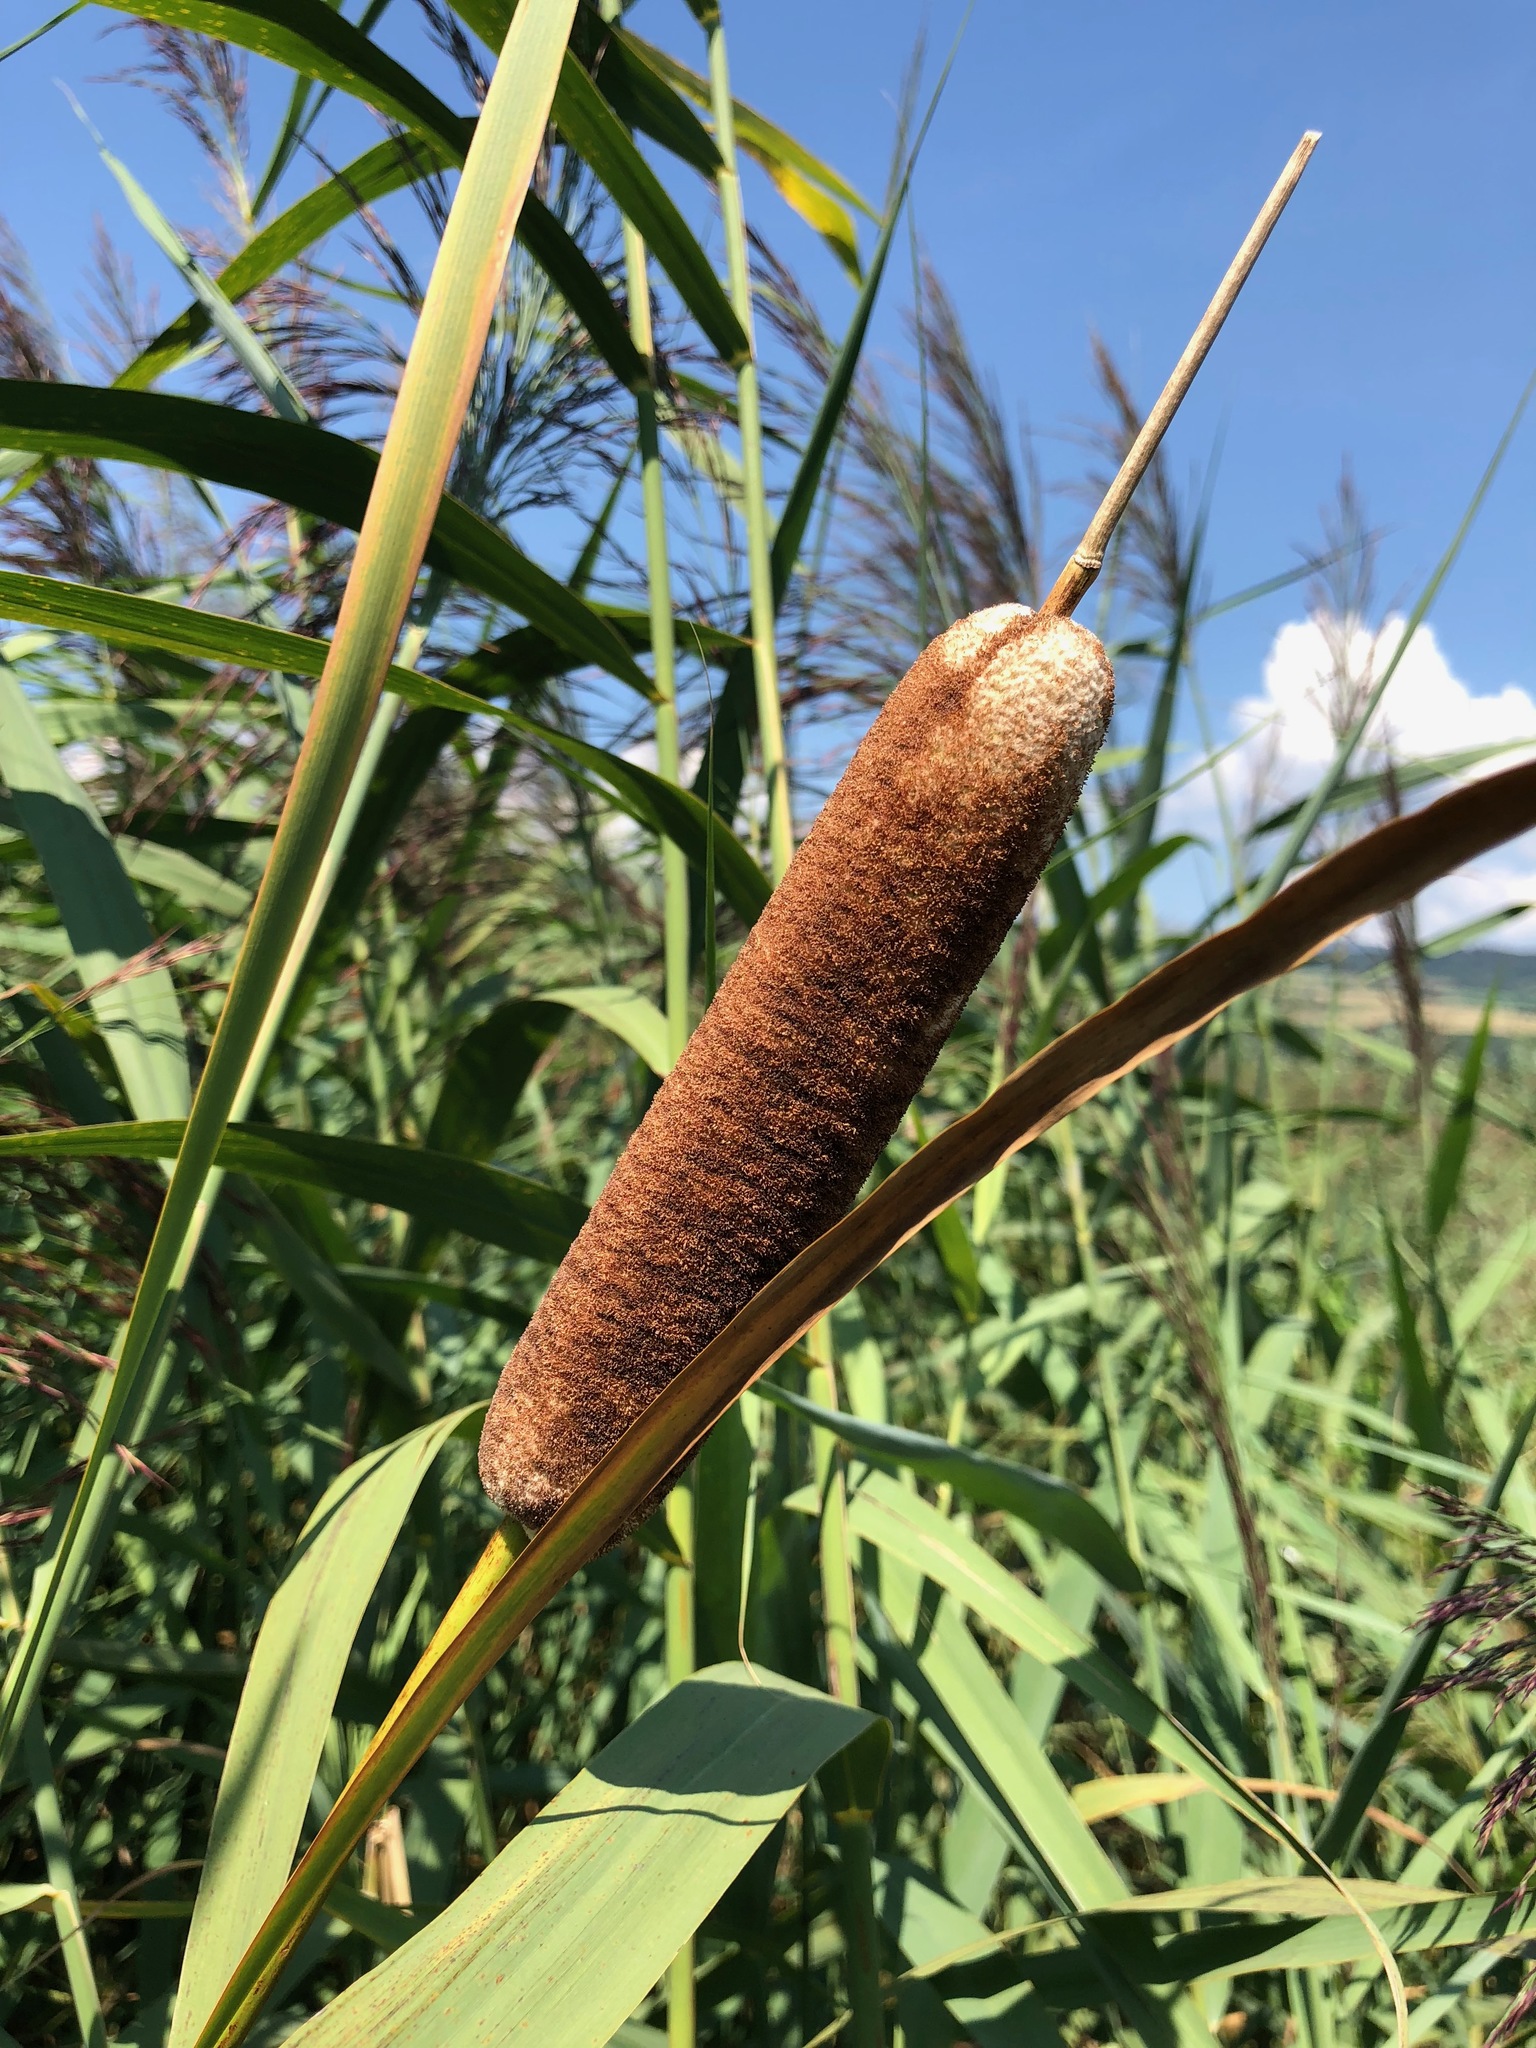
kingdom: Plantae
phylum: Tracheophyta
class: Liliopsida
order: Poales
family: Typhaceae
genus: Typha
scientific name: Typha latifolia
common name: Broadleaf cattail
